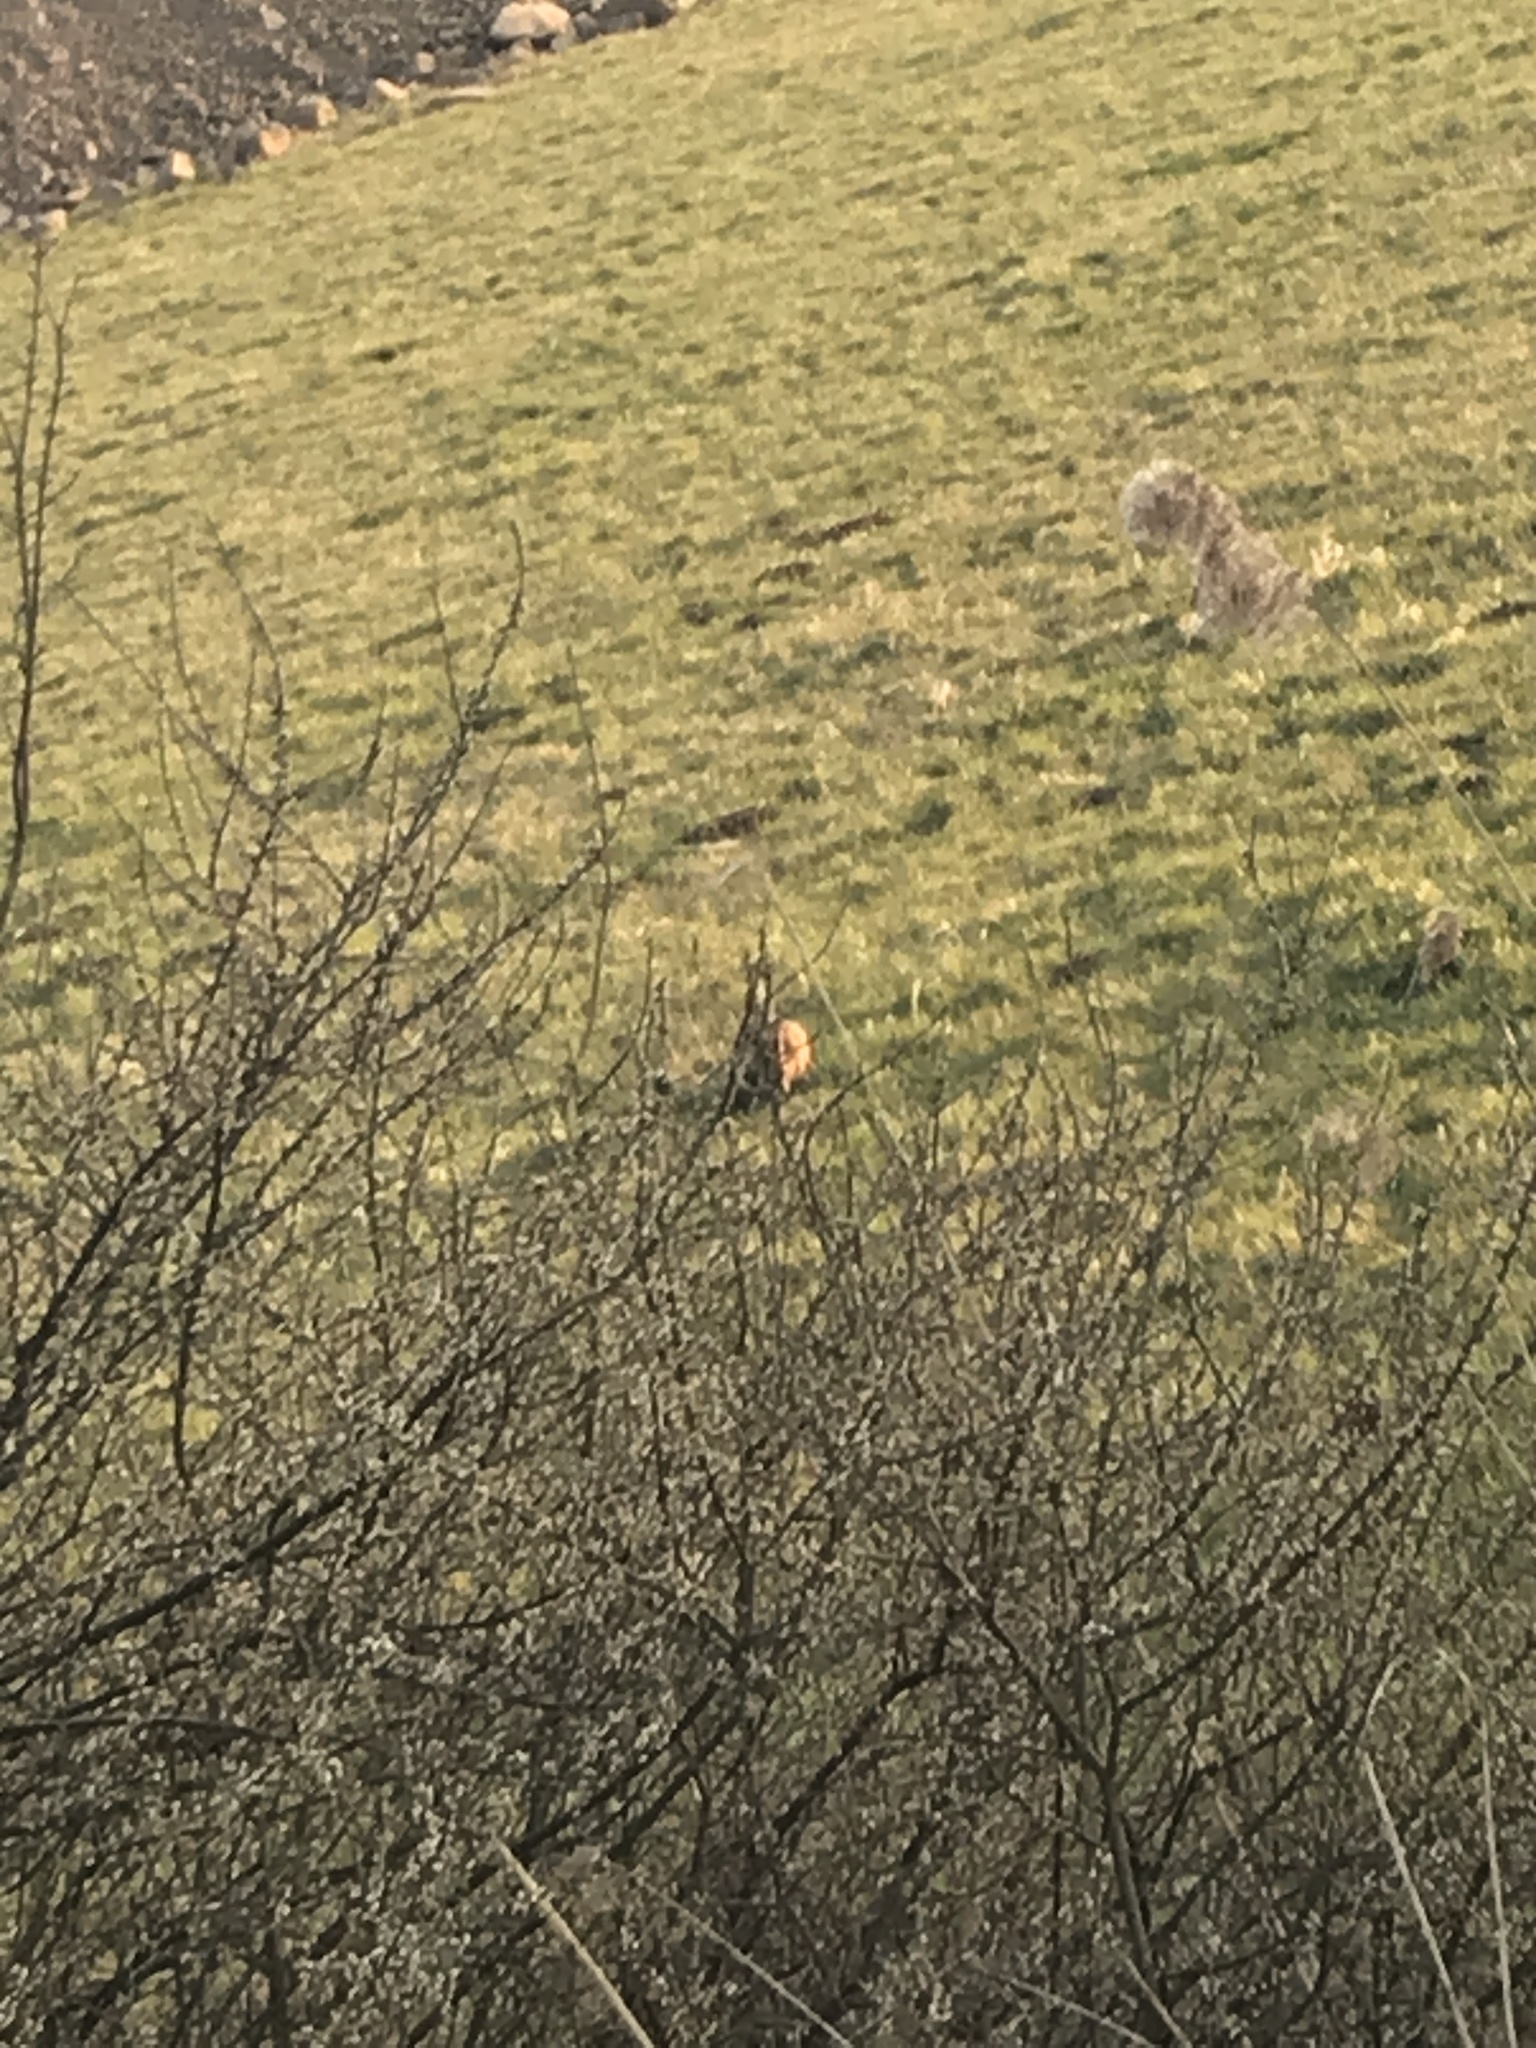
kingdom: Animalia
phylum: Chordata
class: Mammalia
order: Lagomorpha
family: Leporidae
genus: Lepus
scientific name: Lepus europaeus
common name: European hare
